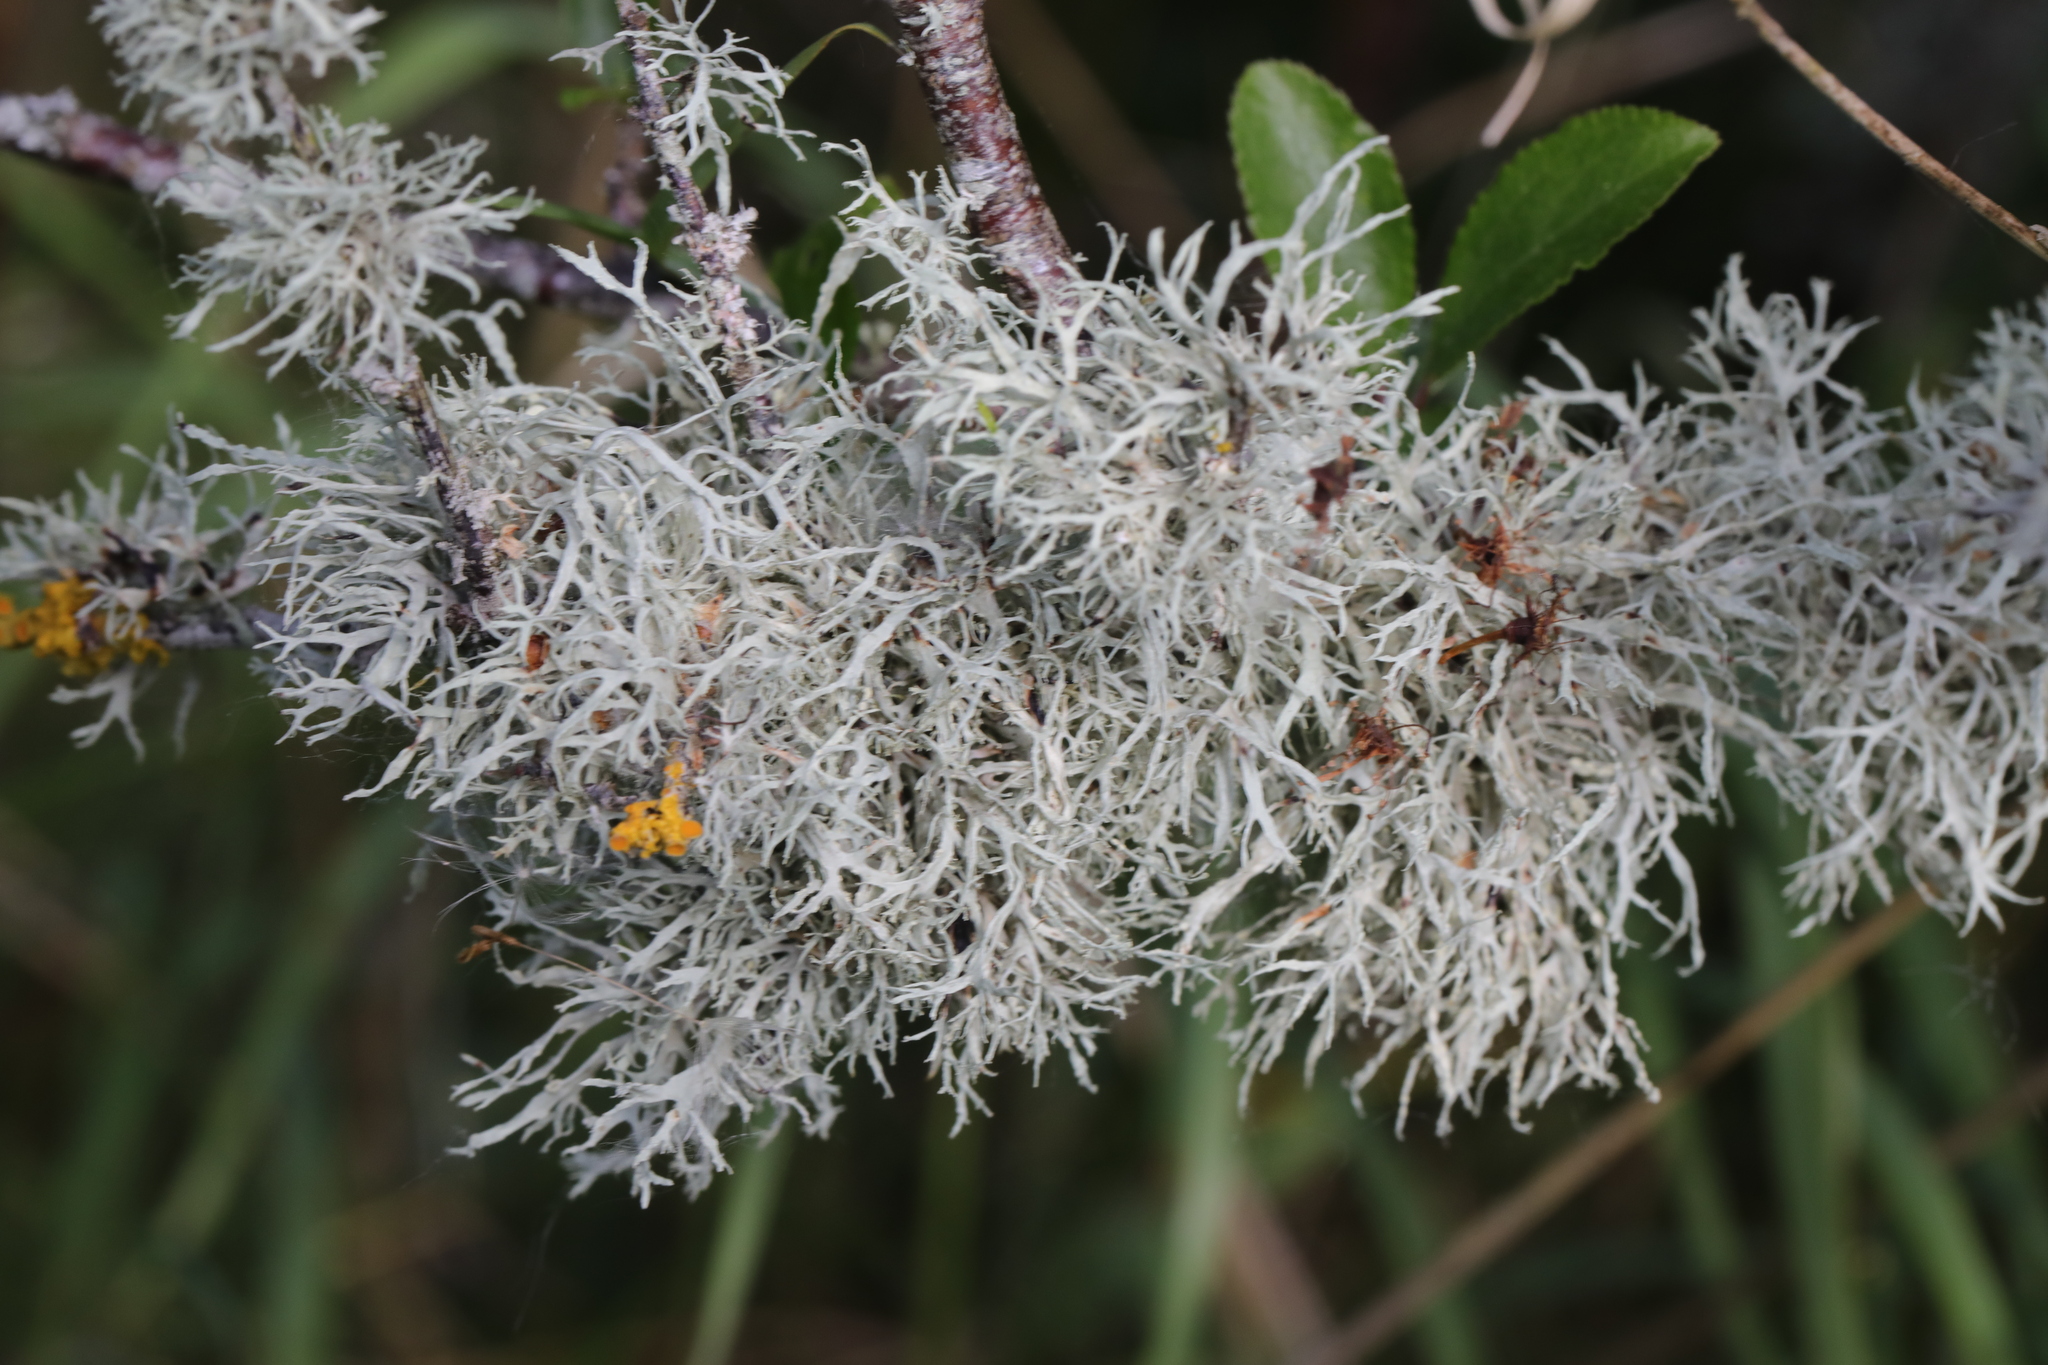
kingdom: Fungi
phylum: Ascomycota
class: Lecanoromycetes
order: Lecanorales
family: Ramalinaceae
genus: Ramalina
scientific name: Ramalina farinacea
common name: Farinose cartilage lichen
